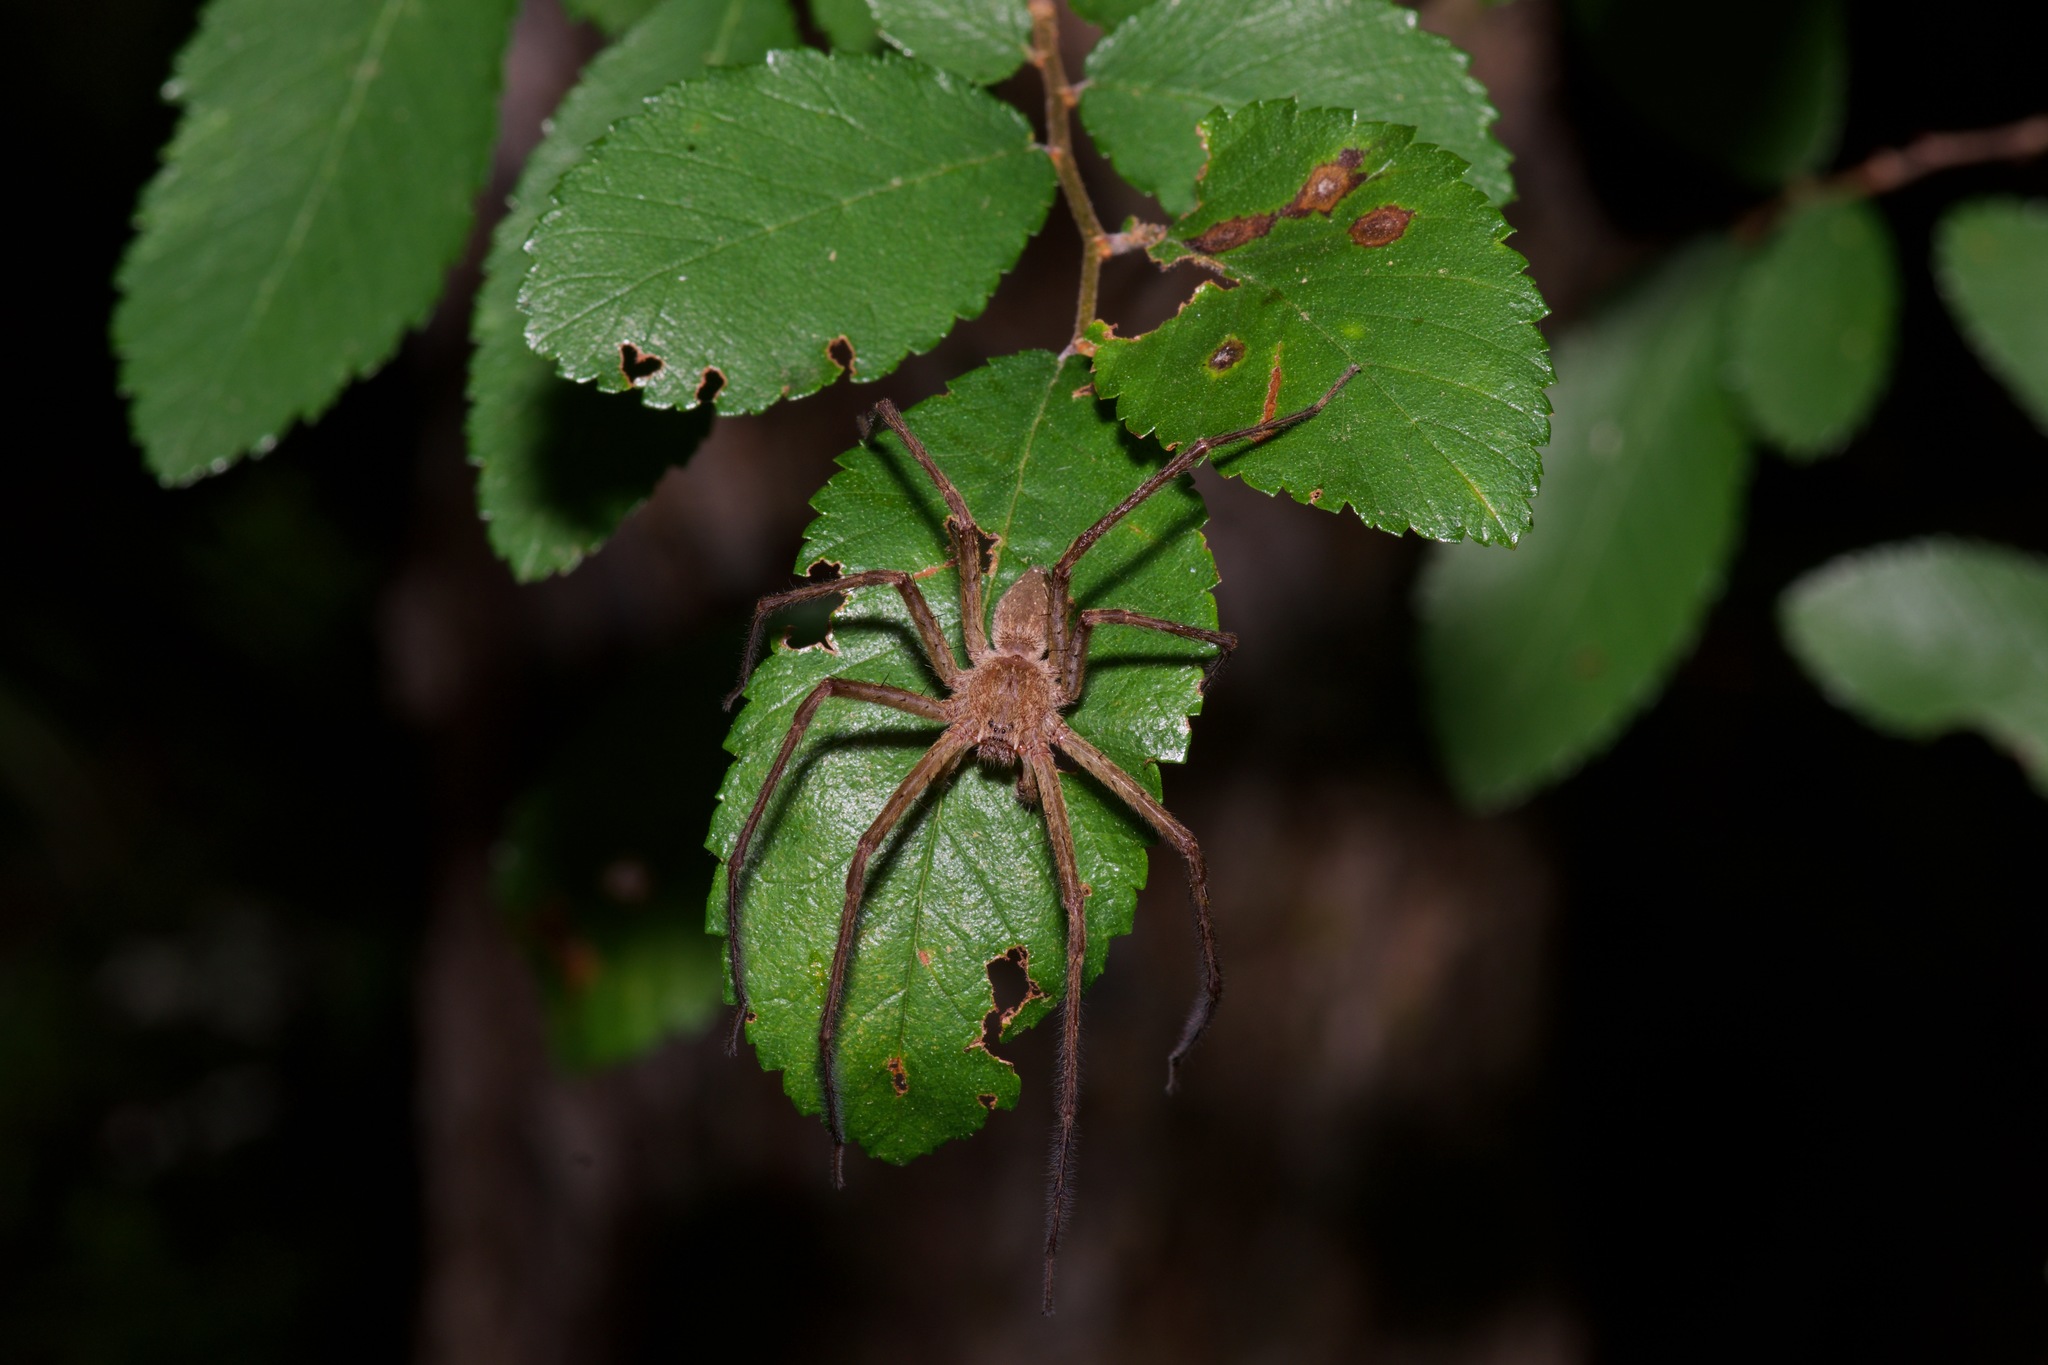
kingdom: Animalia
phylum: Arthropoda
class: Arachnida
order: Araneae
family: Pisauridae
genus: Pisaurina
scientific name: Pisaurina mira
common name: American nursery web spider
